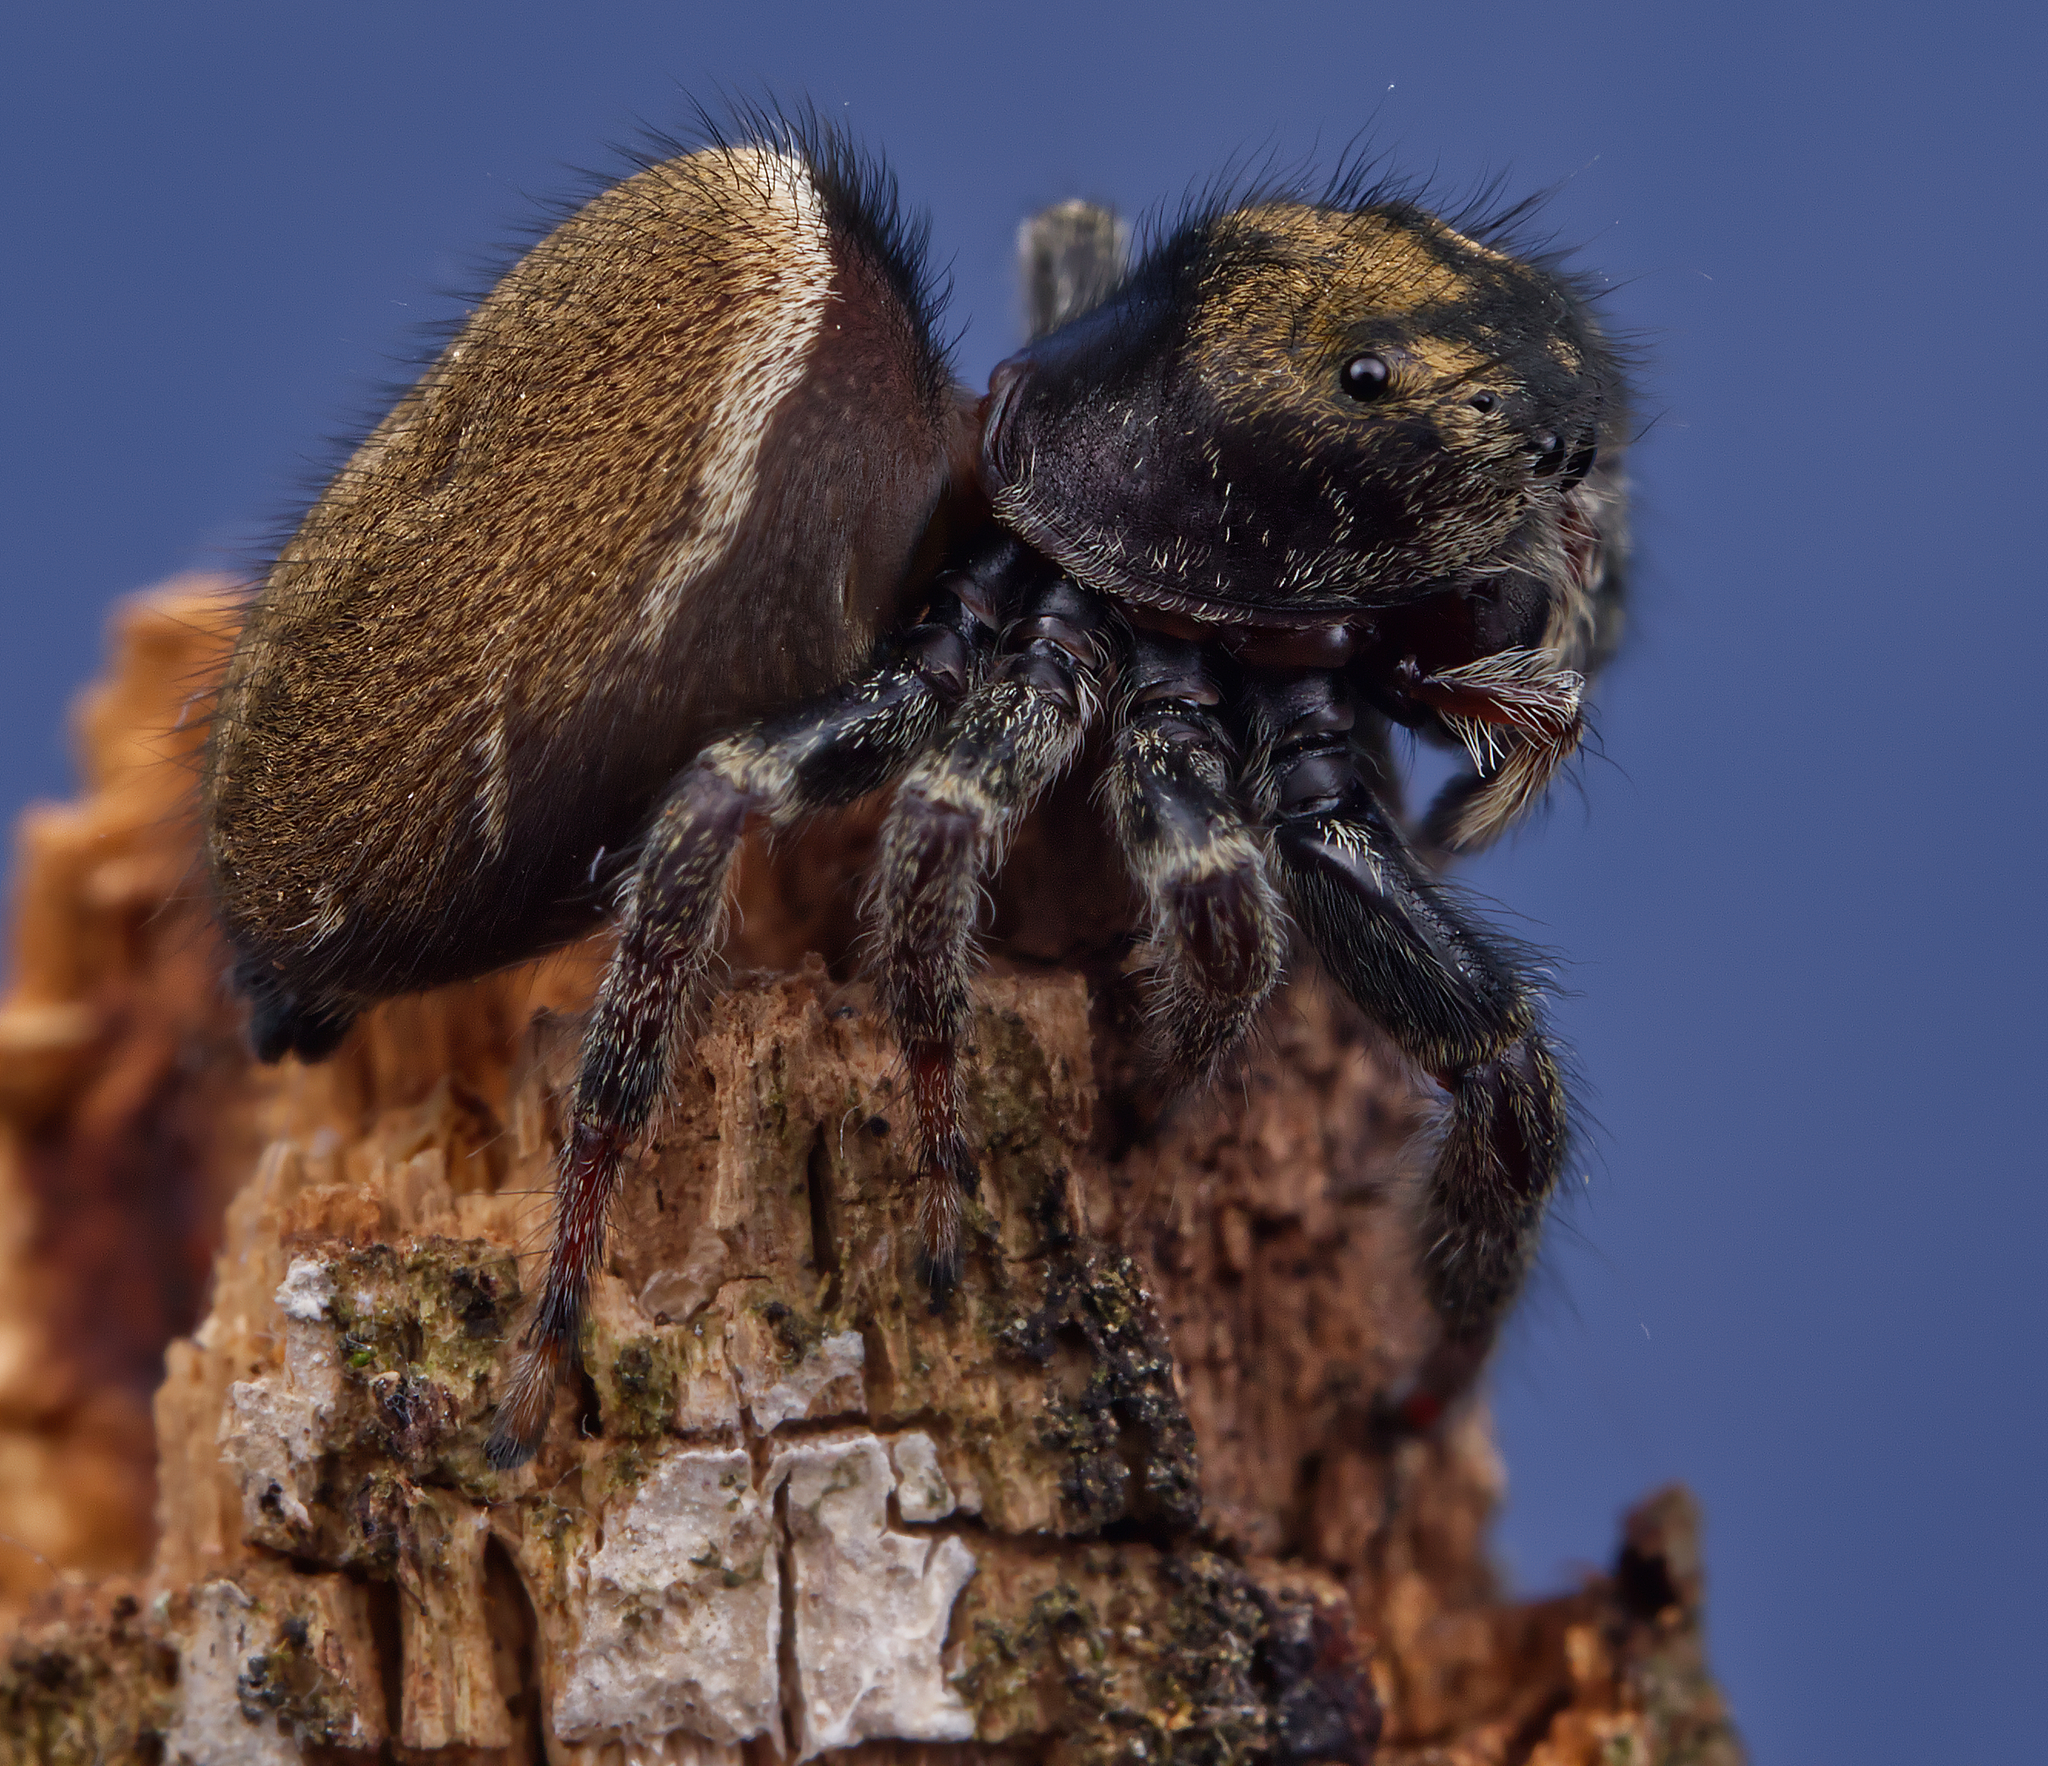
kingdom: Animalia
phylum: Arthropoda
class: Arachnida
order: Araneae
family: Salticidae
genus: Phidippus
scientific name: Phidippus whitmani
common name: Whitman's jumping spider
